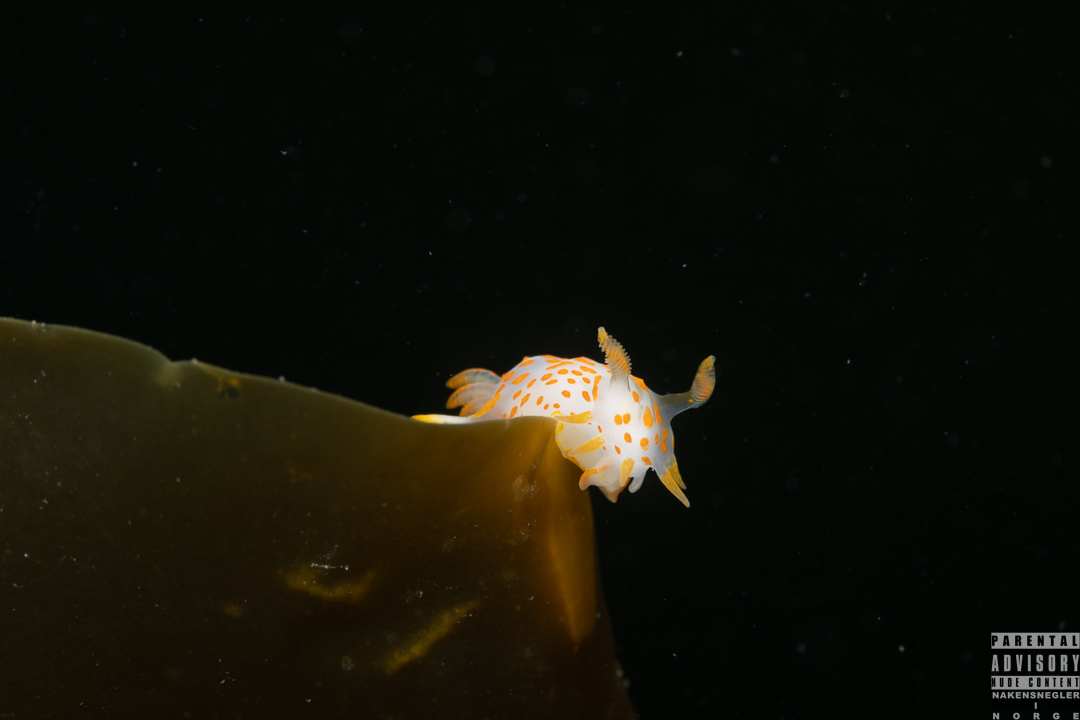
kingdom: Animalia
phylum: Mollusca
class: Gastropoda
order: Nudibranchia
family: Polyceridae
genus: Polycera
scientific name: Polycera quadrilineata
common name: Four-striped polycera
